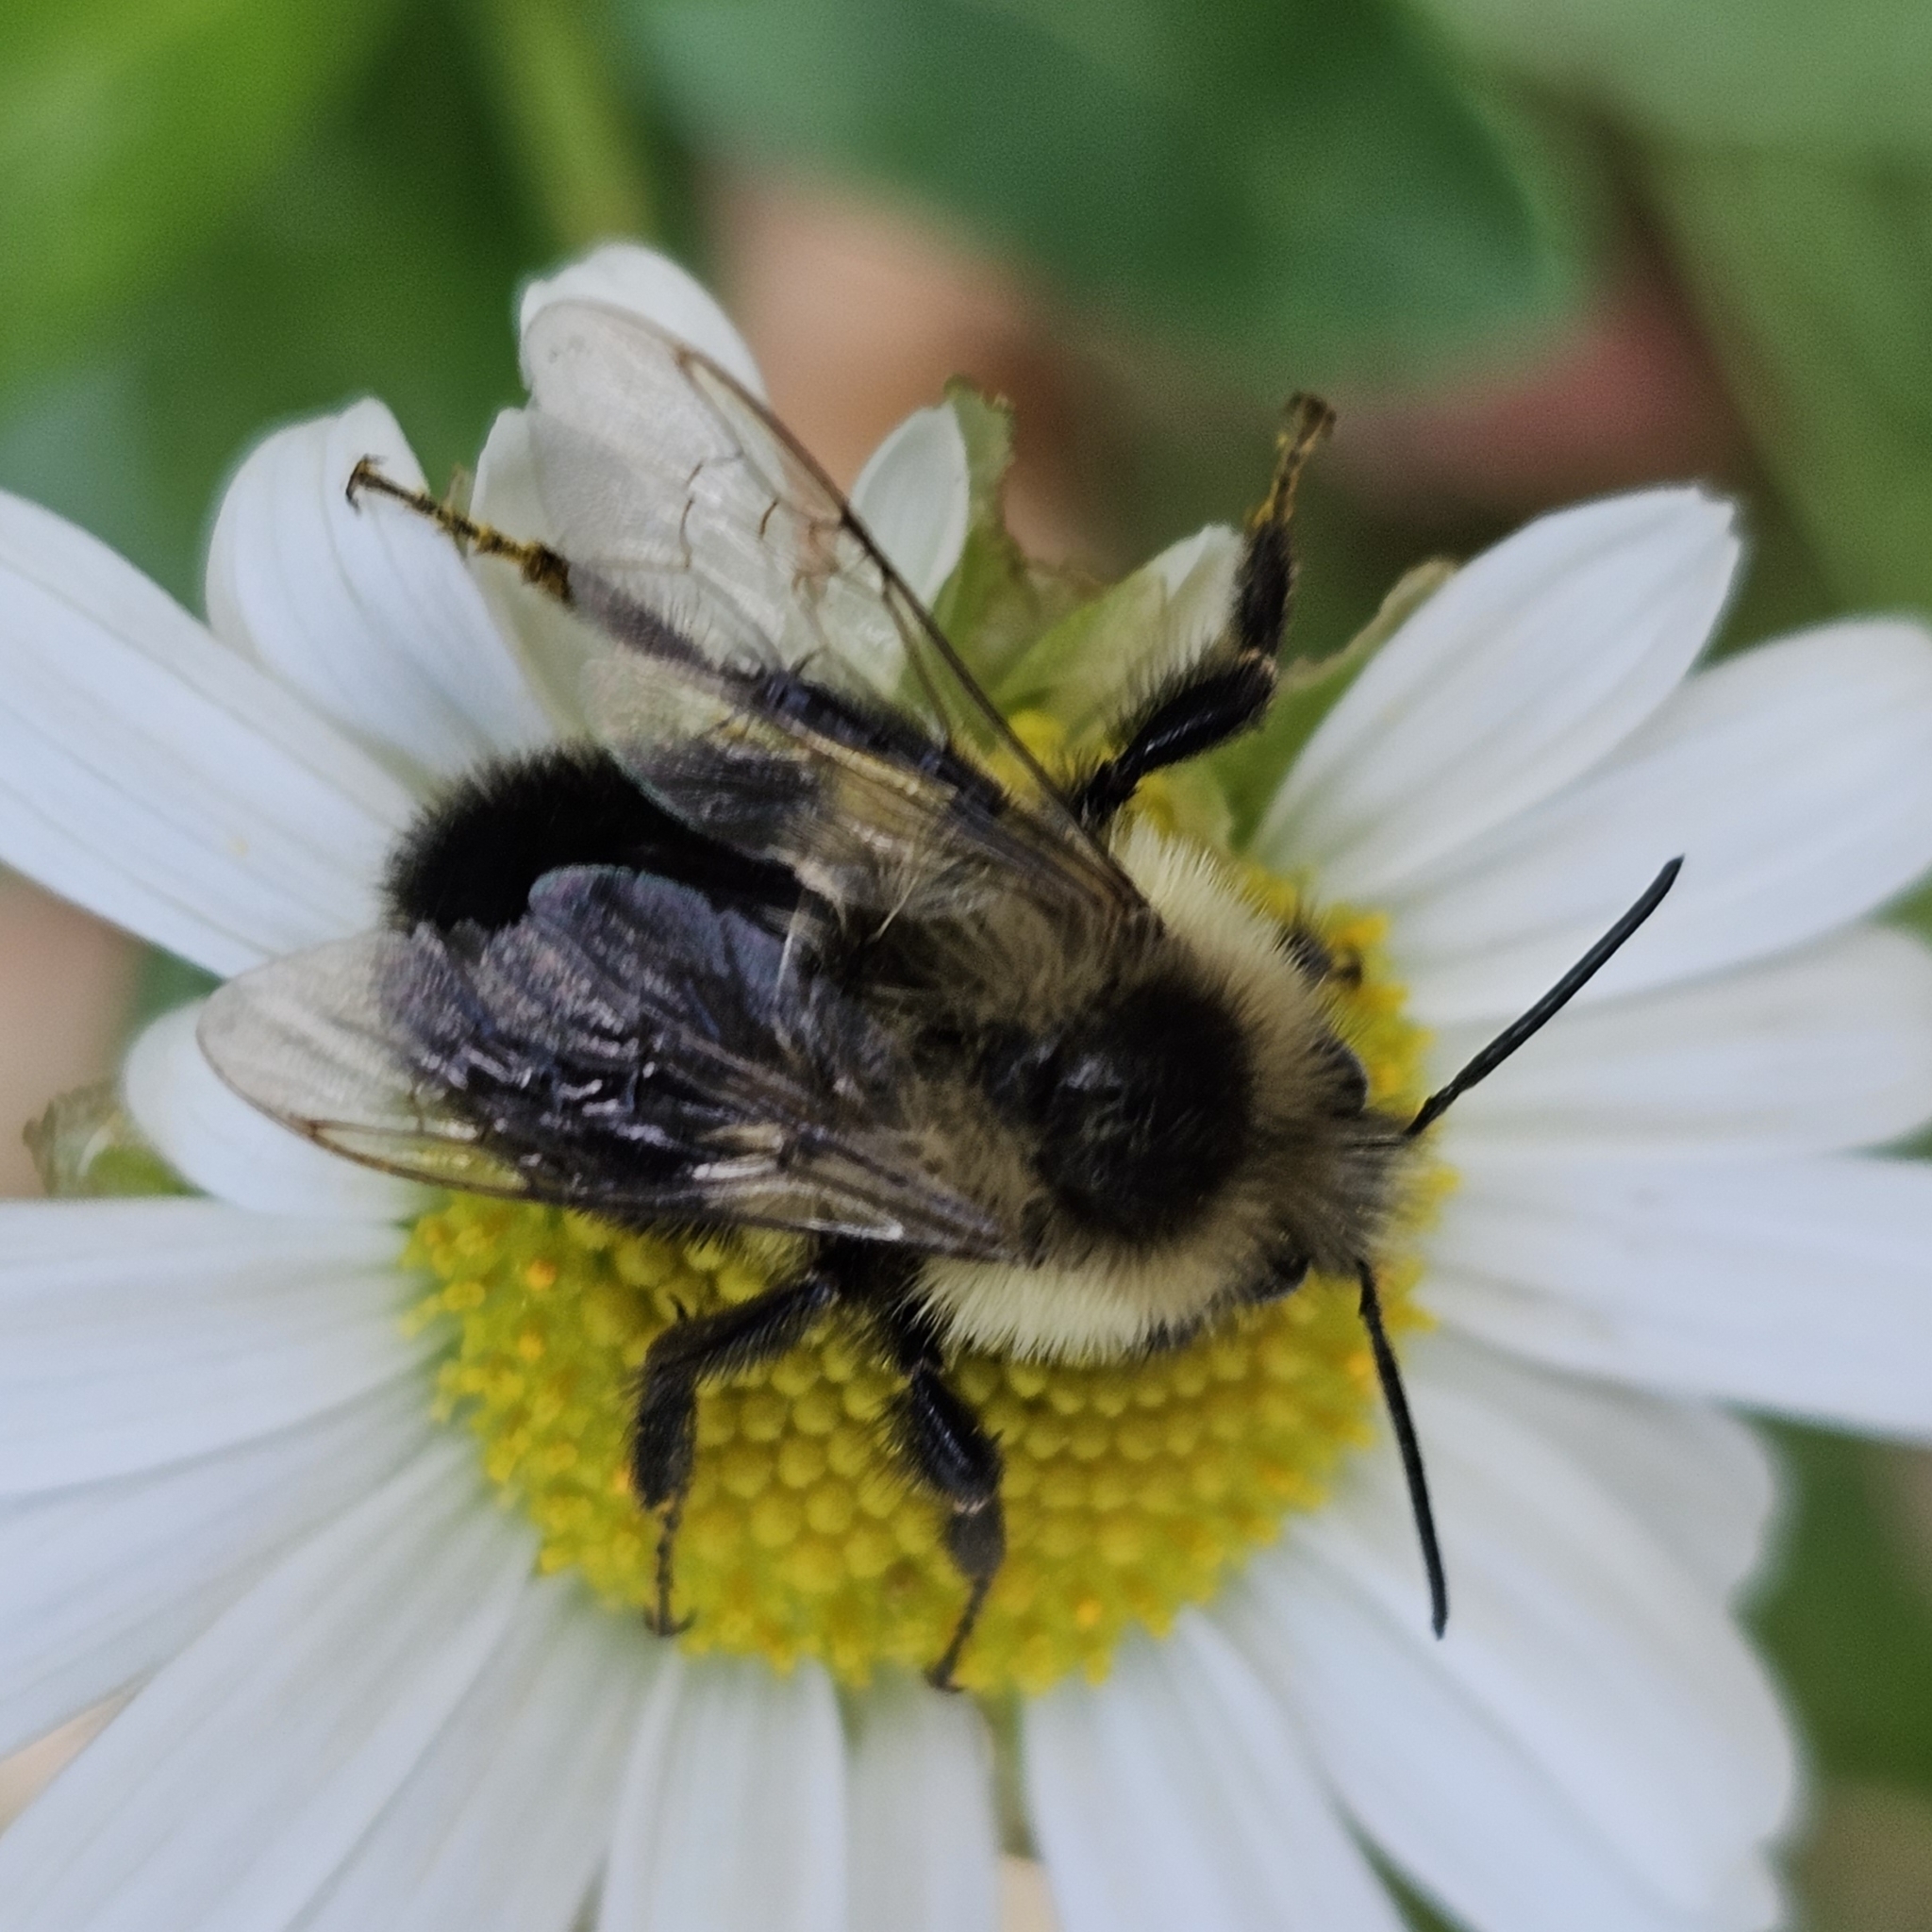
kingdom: Animalia
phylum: Arthropoda
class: Insecta
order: Hymenoptera
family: Apidae
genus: Bombus
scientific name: Bombus impatiens
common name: Common eastern bumble bee
